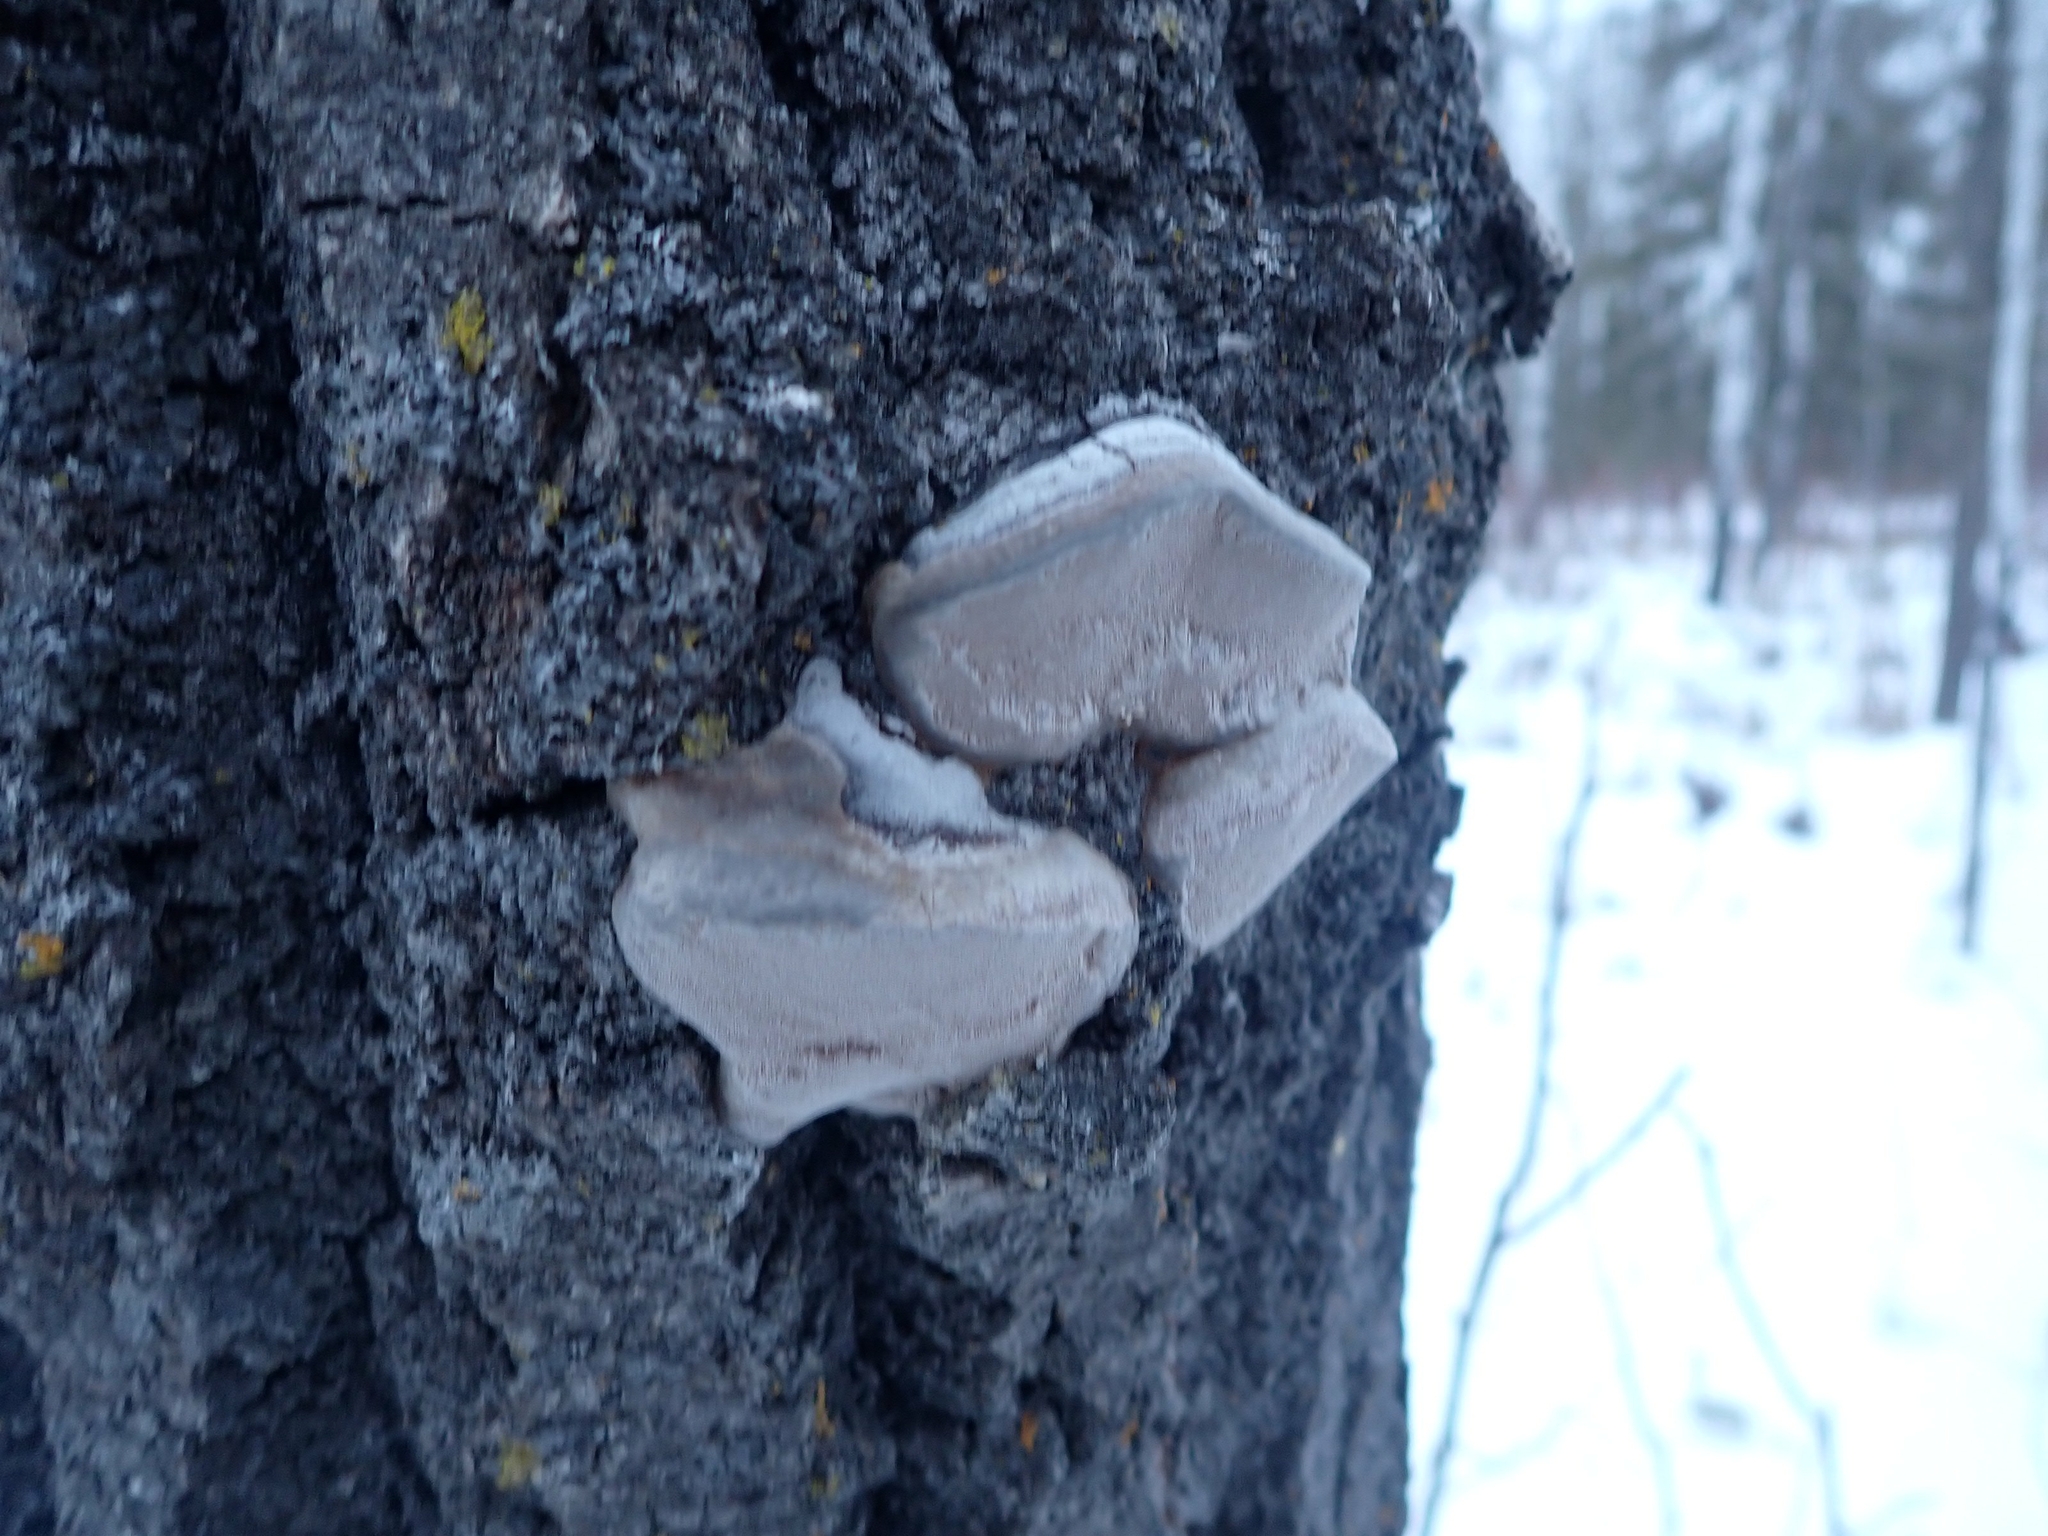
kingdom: Fungi
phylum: Basidiomycota
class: Agaricomycetes
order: Hymenochaetales
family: Hymenochaetaceae
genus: Phellinus
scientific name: Phellinus tremulae
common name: Aspen bracket
